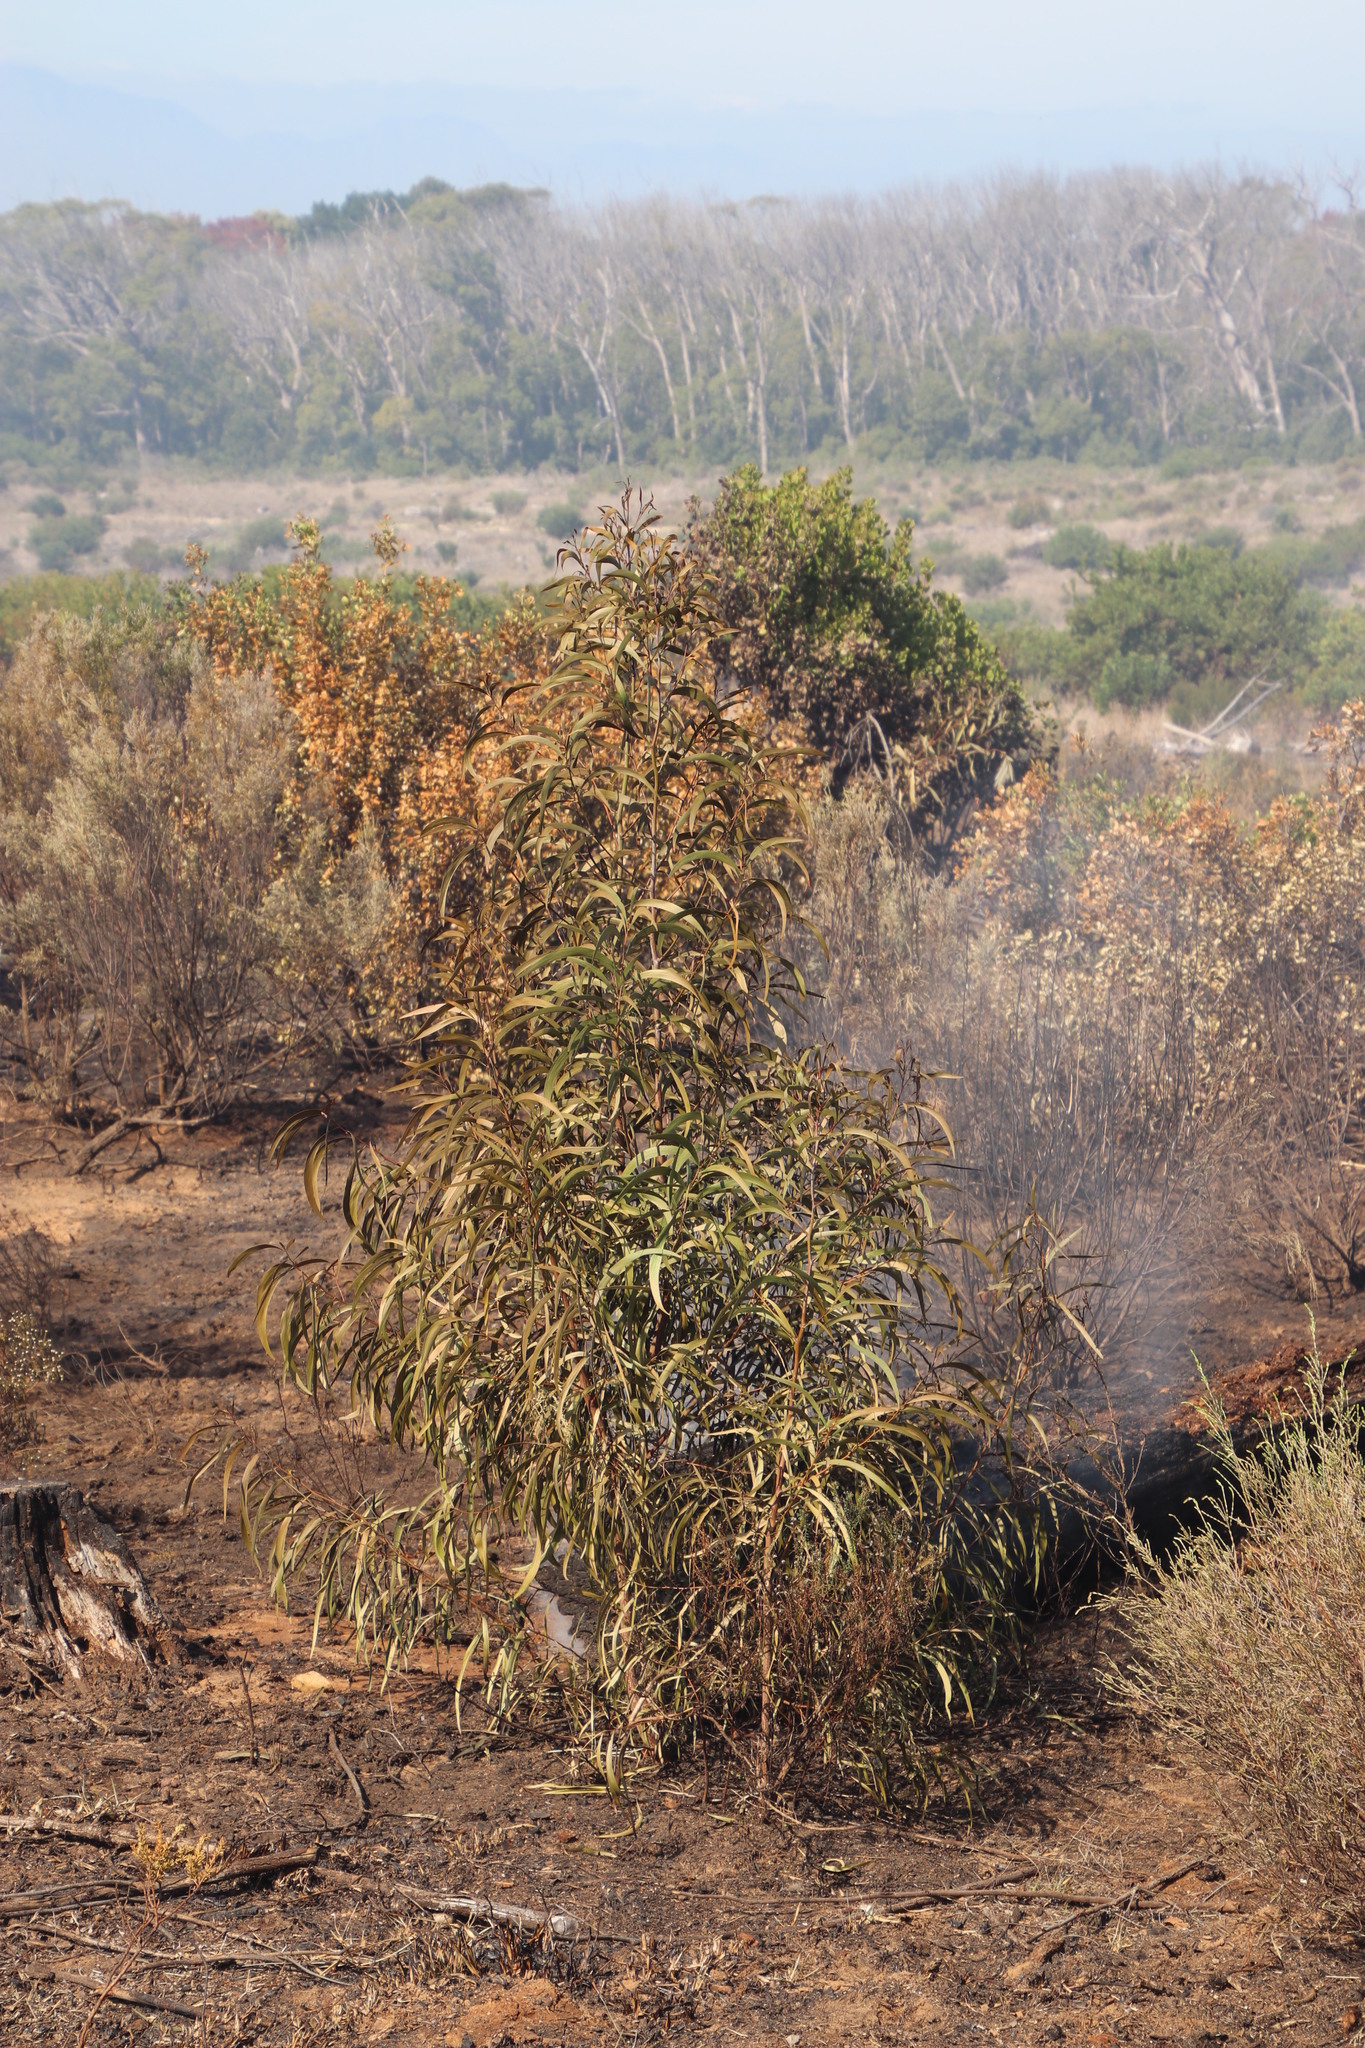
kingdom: Plantae
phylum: Tracheophyta
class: Magnoliopsida
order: Fabales
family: Fabaceae
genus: Acacia
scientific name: Acacia implexa
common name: Black wattle
